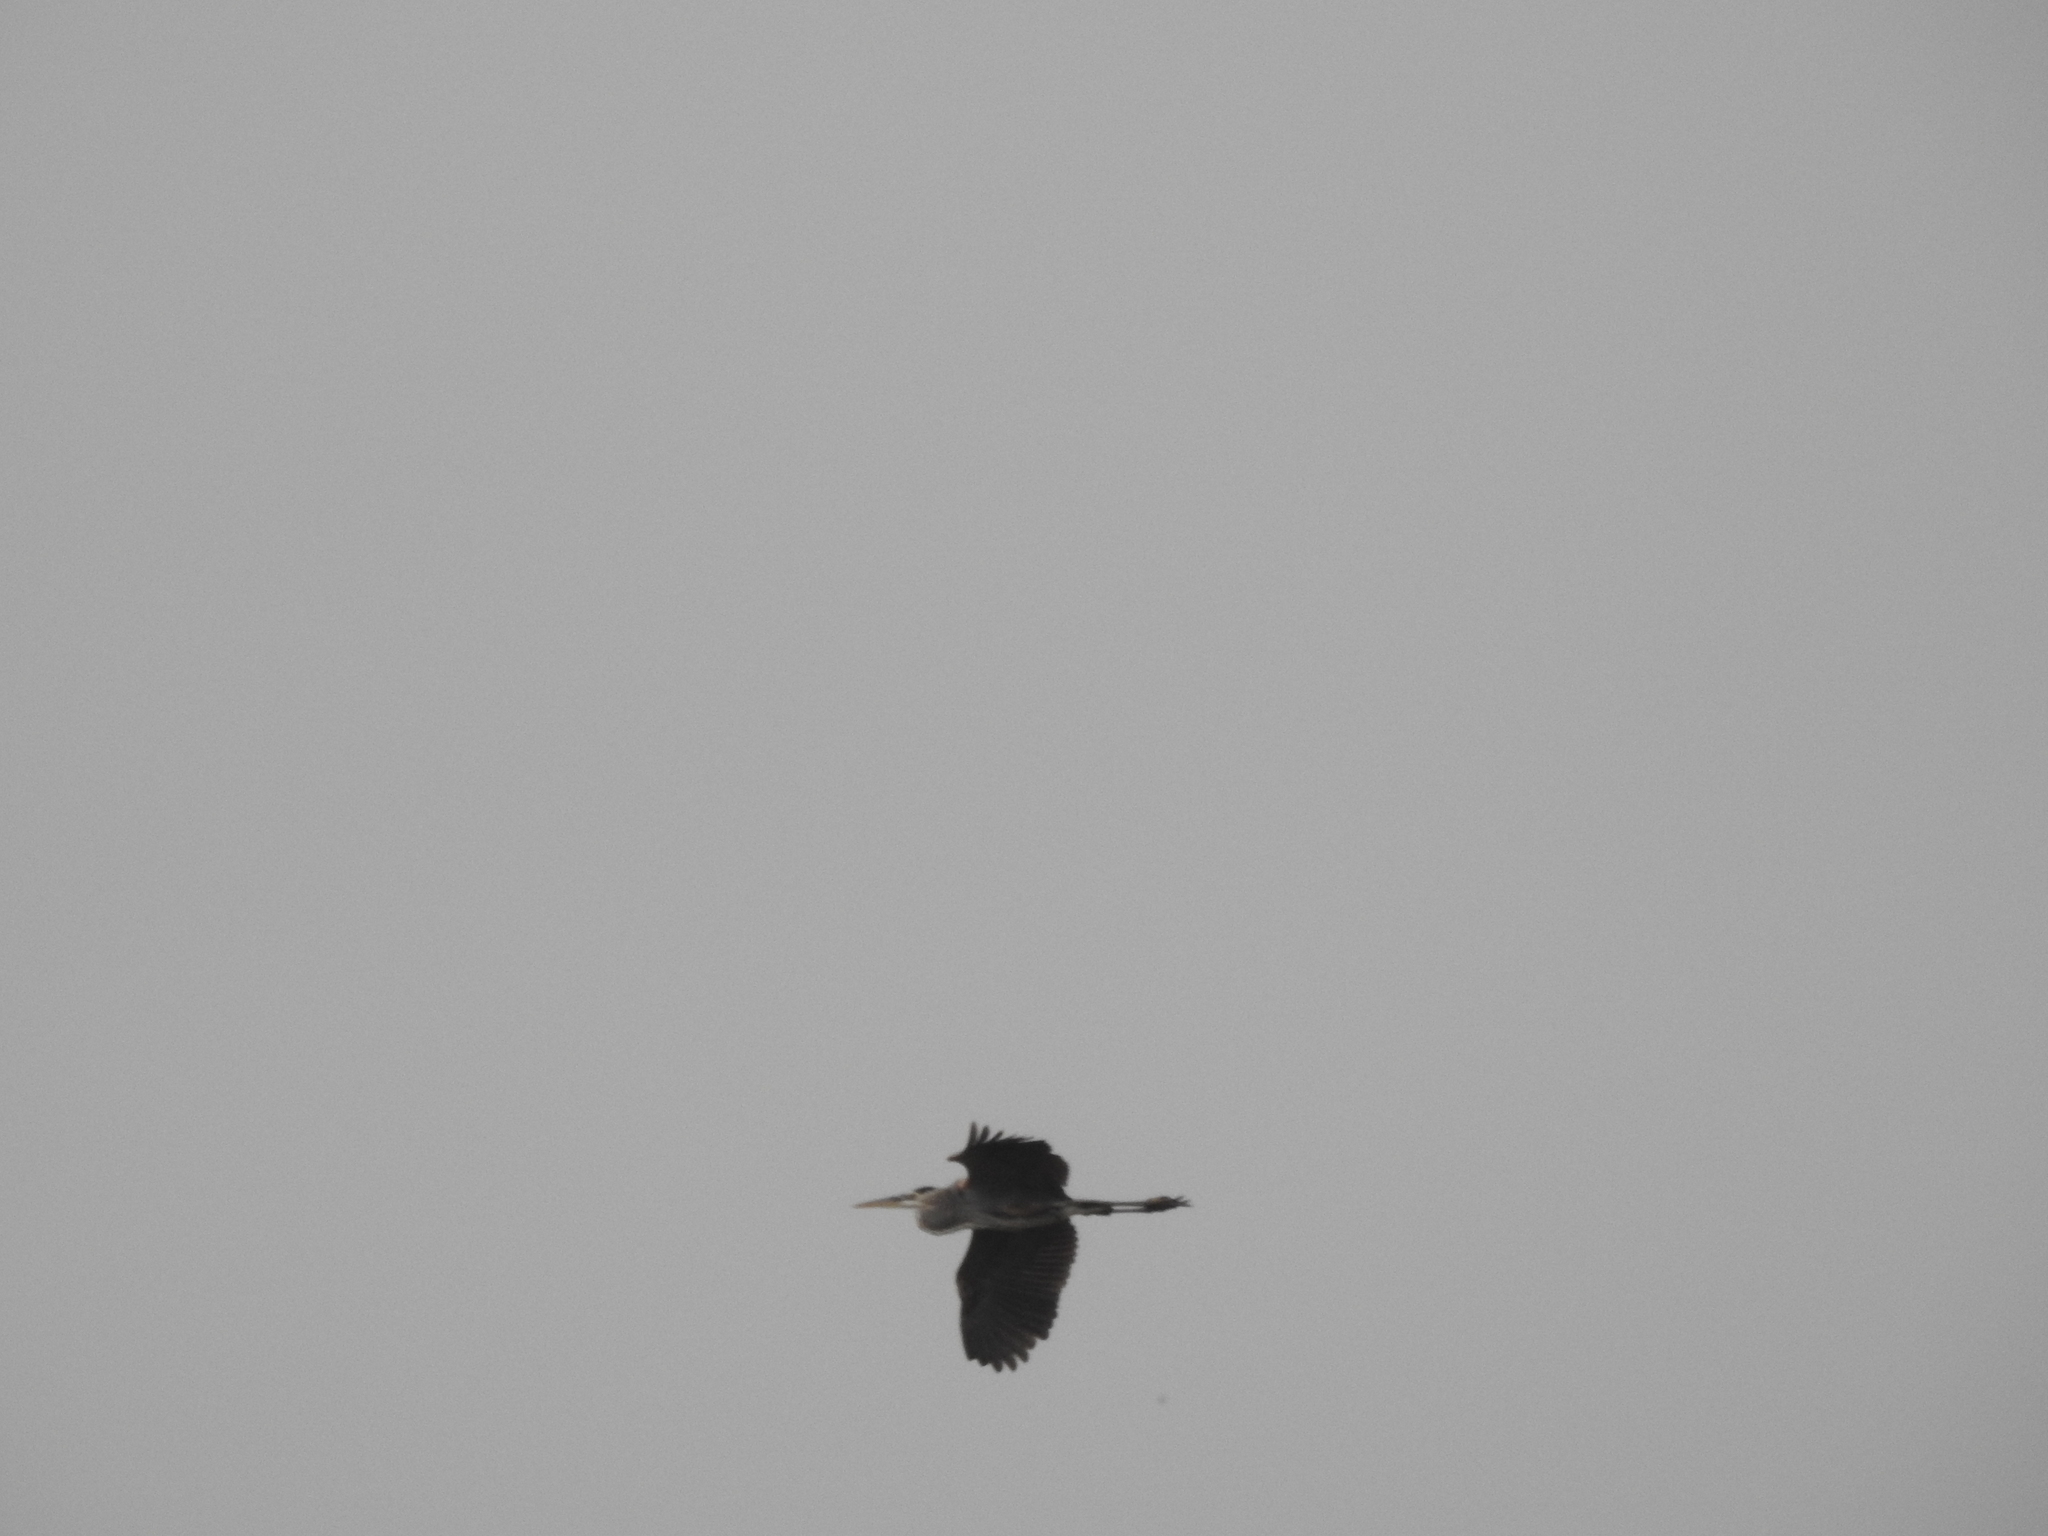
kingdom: Animalia
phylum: Chordata
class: Aves
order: Pelecaniformes
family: Ardeidae
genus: Ardea
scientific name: Ardea herodias
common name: Great blue heron
